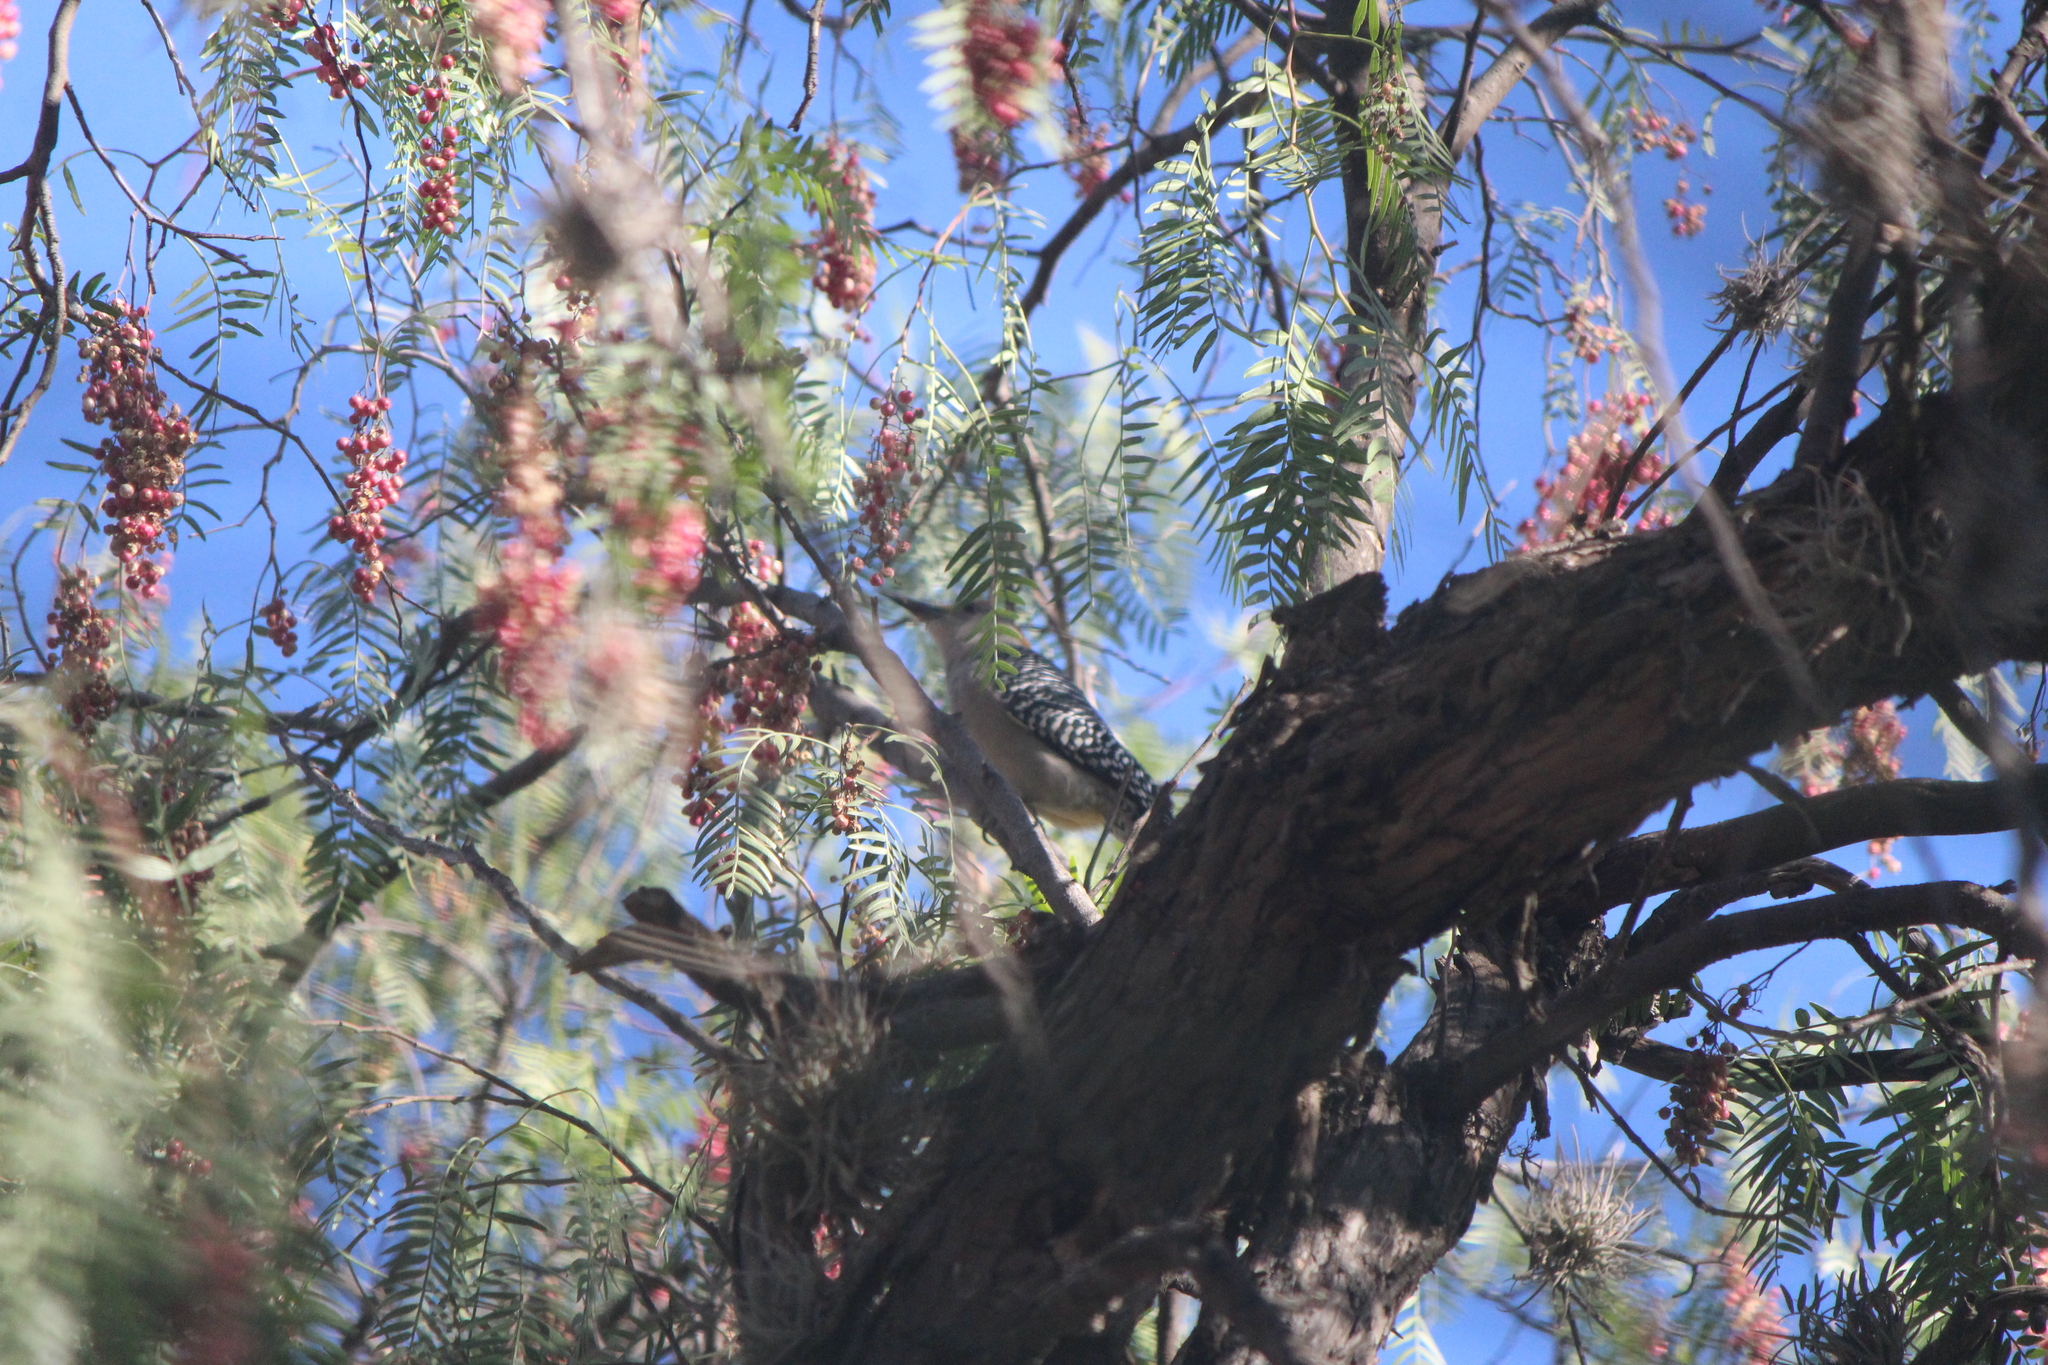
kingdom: Animalia
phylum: Chordata
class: Aves
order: Piciformes
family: Picidae
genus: Melanerpes
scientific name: Melanerpes aurifrons
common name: Golden-fronted woodpecker
